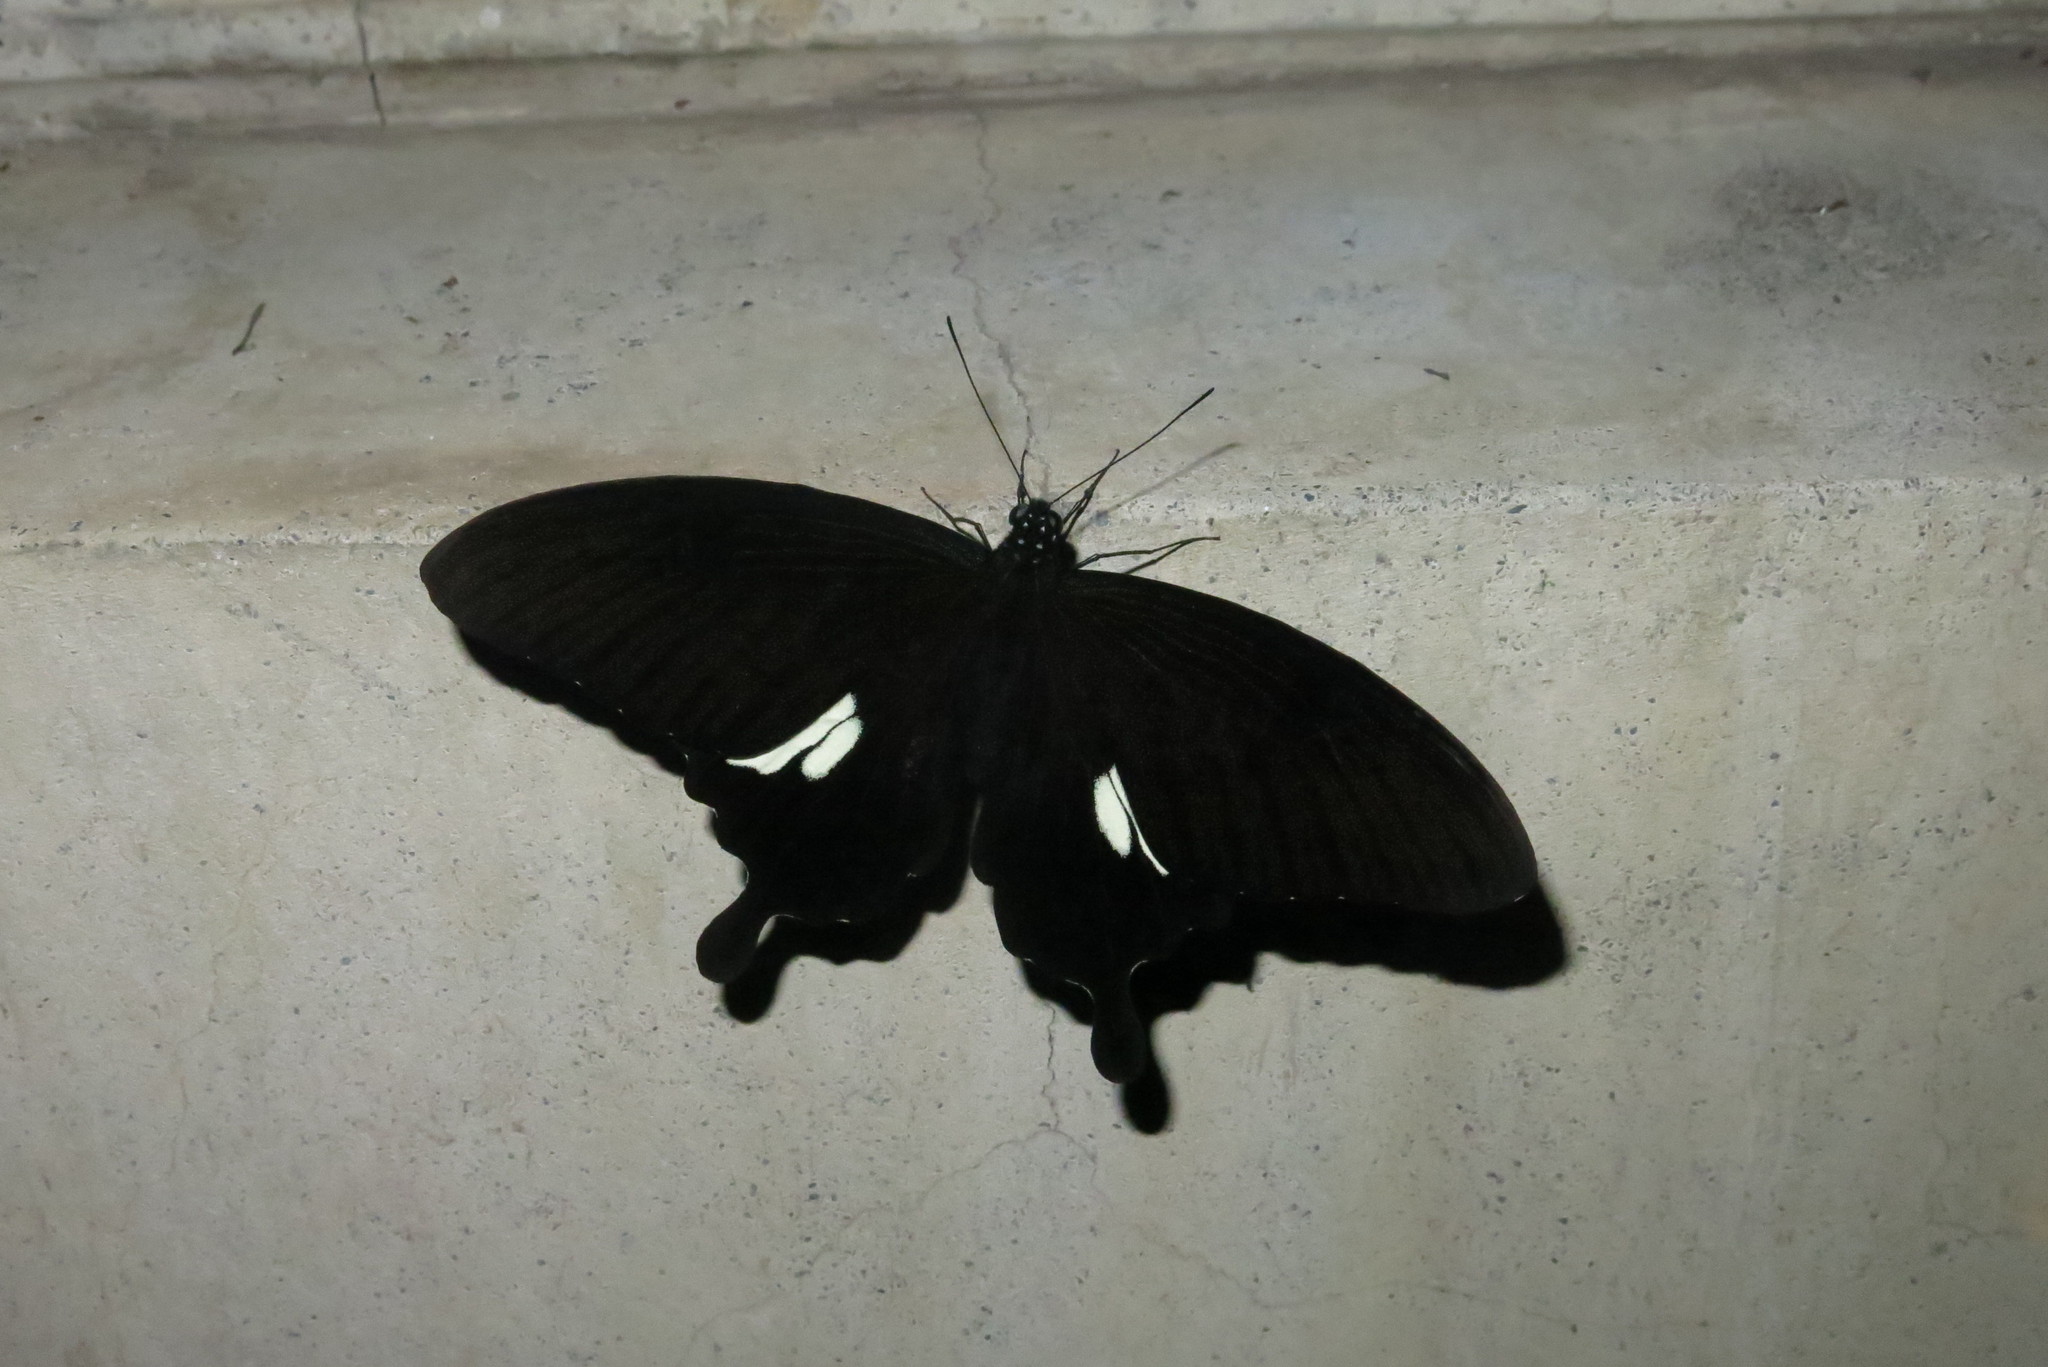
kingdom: Animalia
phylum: Arthropoda
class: Insecta
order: Lepidoptera
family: Papilionidae
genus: Papilio
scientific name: Papilio nephelus
